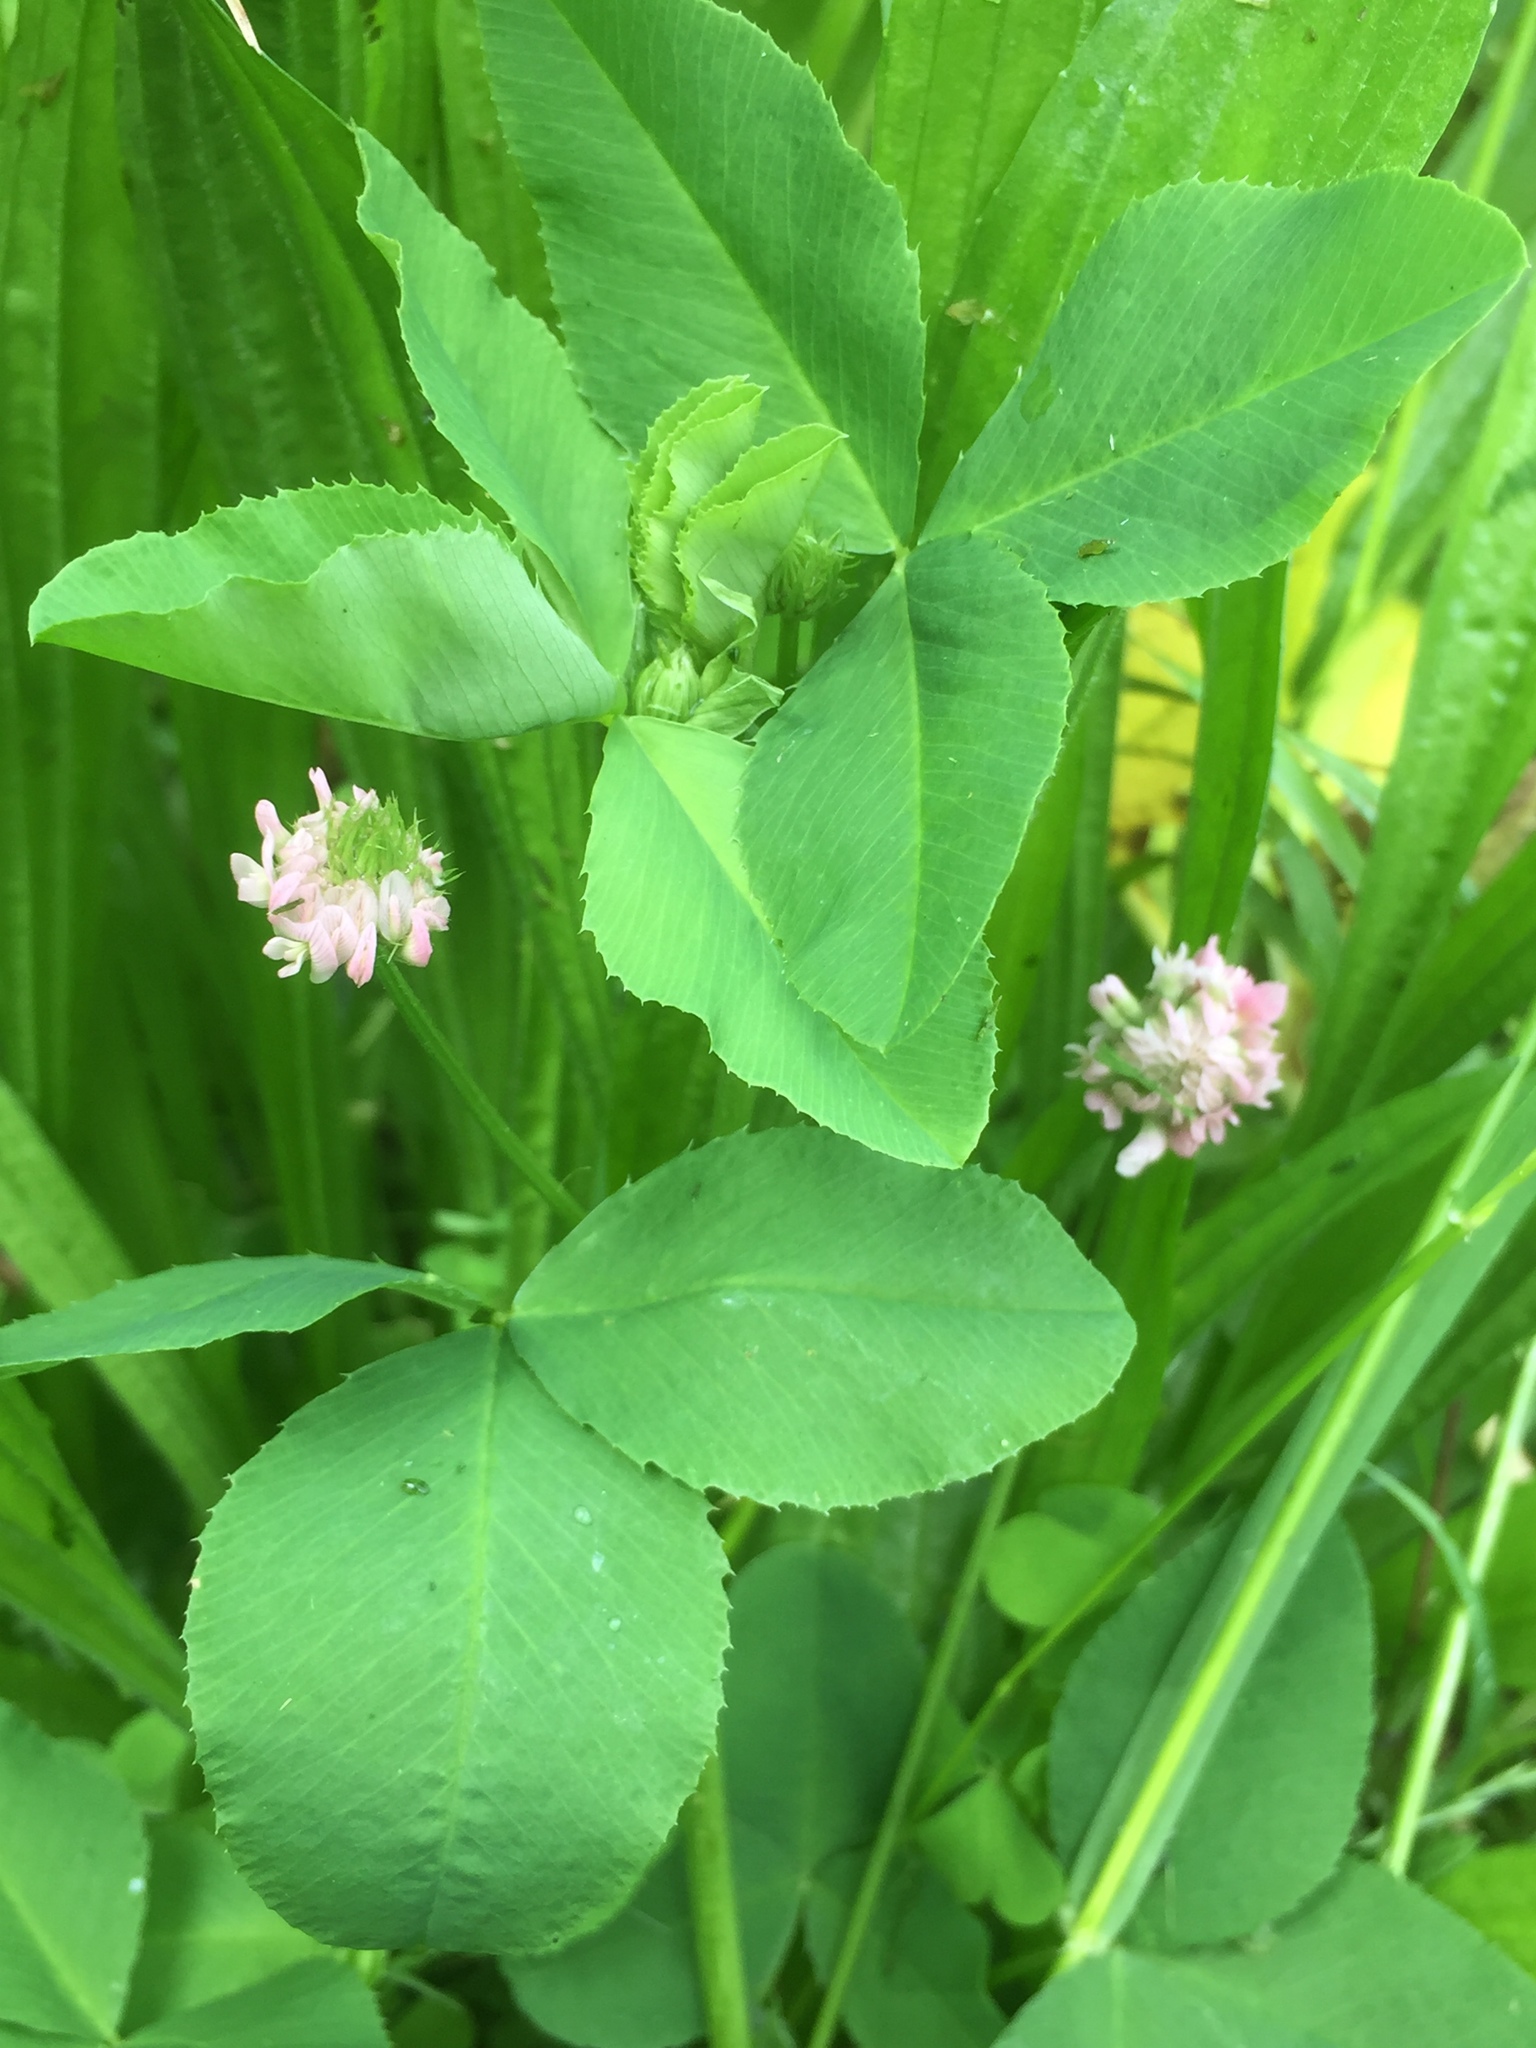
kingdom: Plantae
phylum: Tracheophyta
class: Magnoliopsida
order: Fabales
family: Fabaceae
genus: Trifolium
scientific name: Trifolium hybridum
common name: Alsike clover
